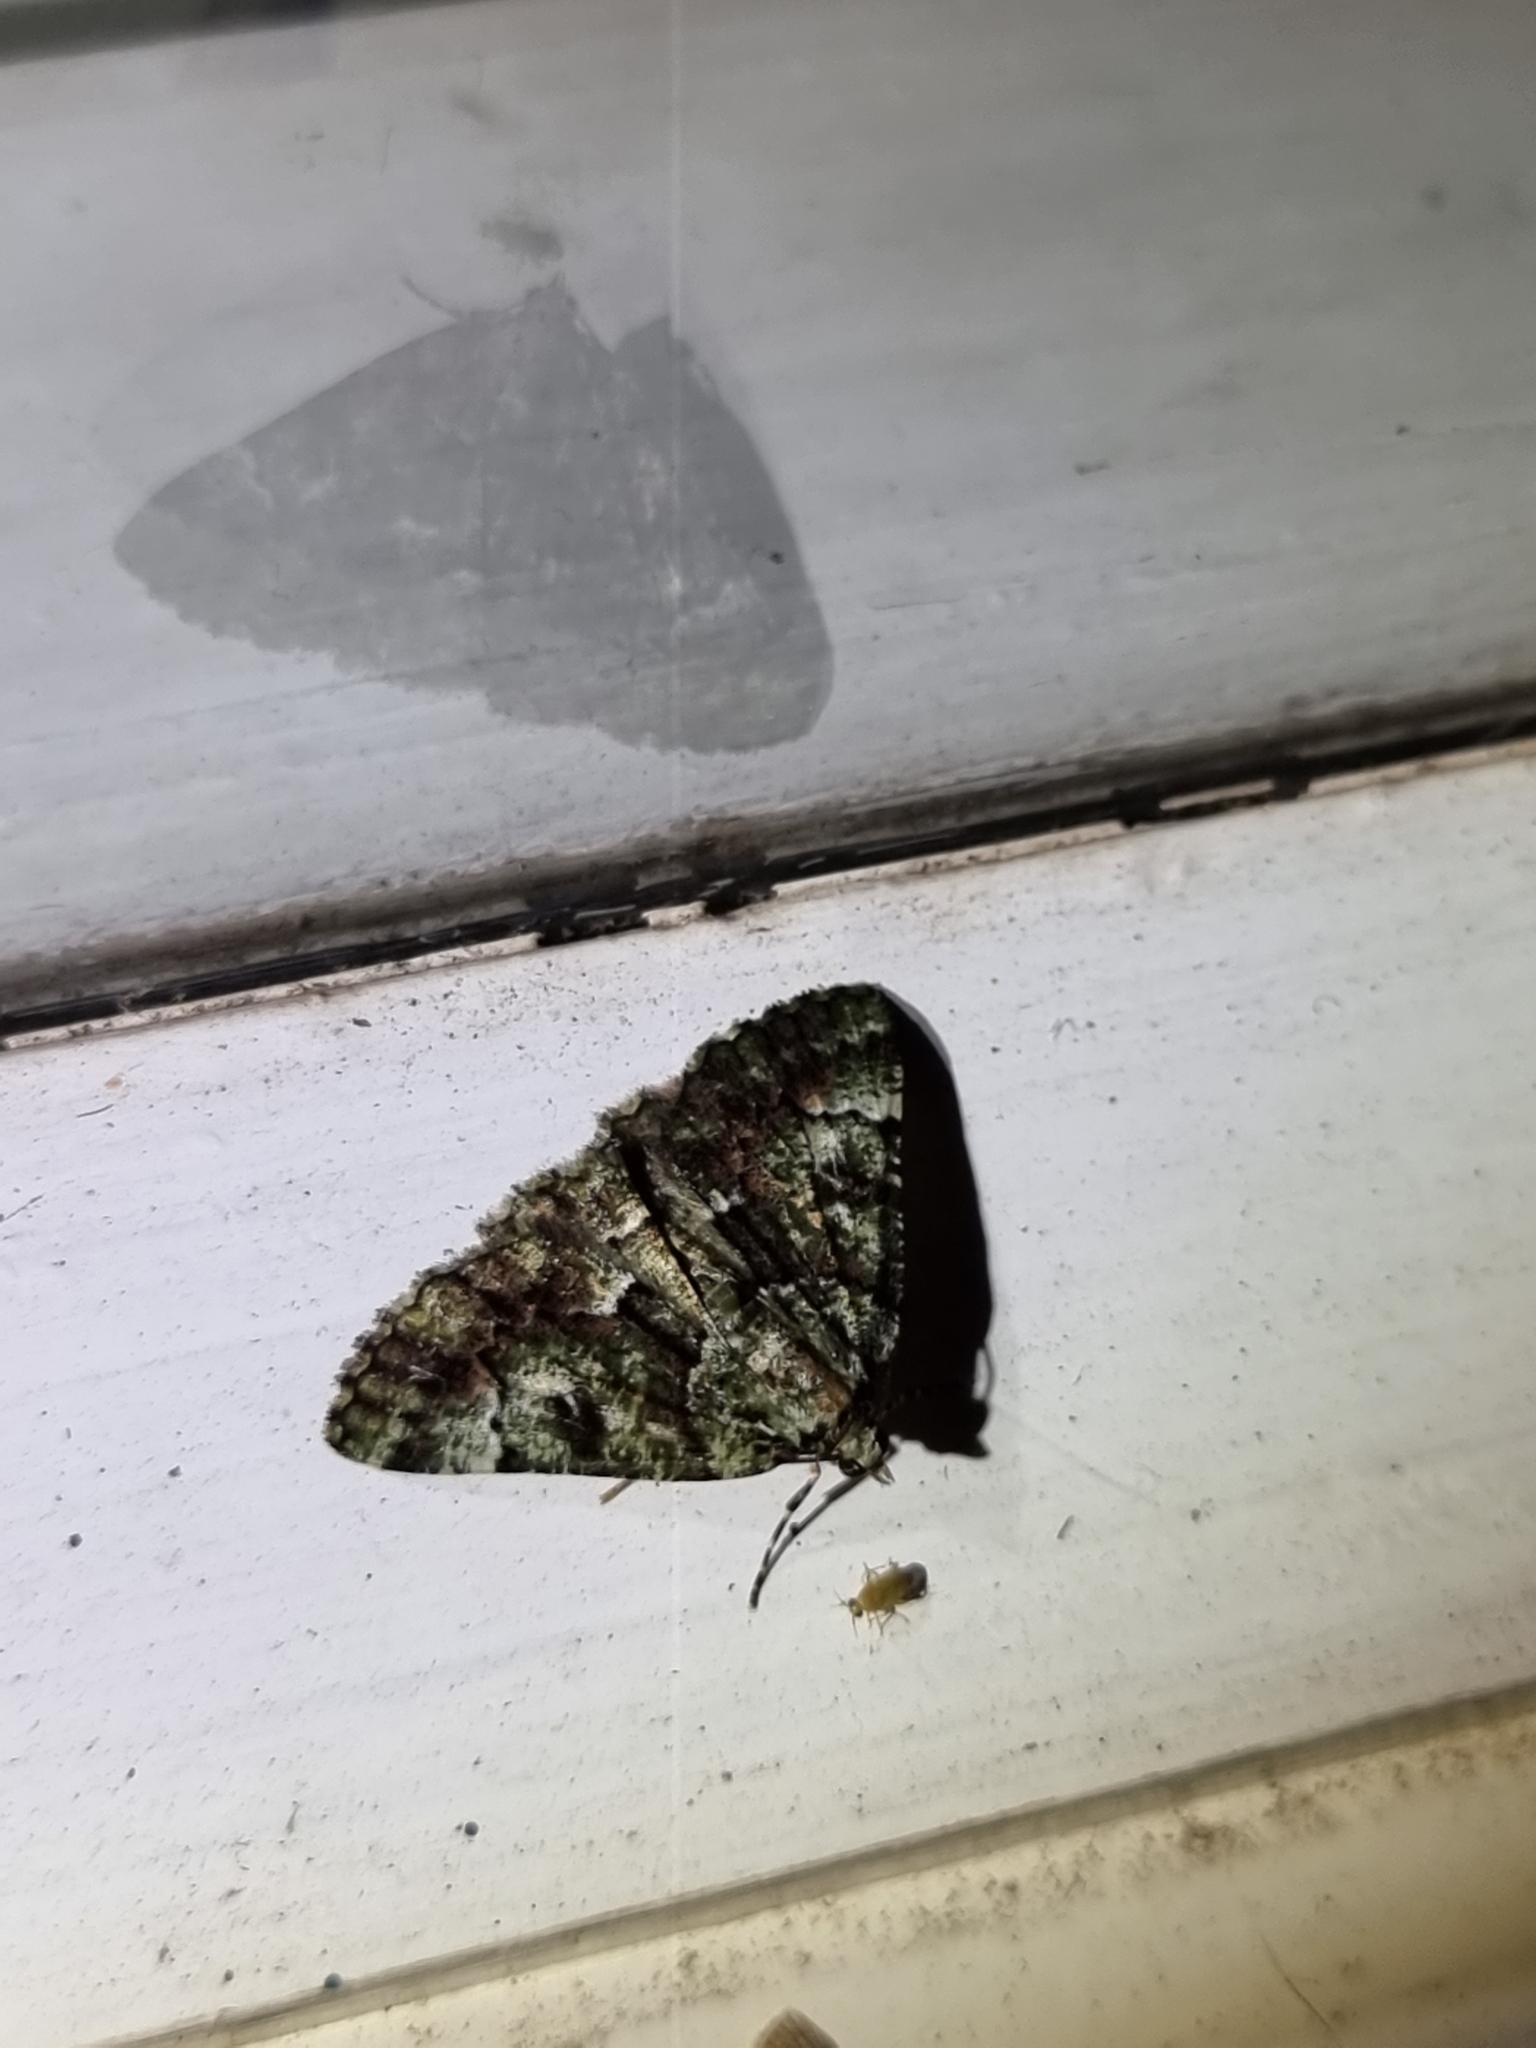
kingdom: Animalia
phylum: Arthropoda
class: Insecta
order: Lepidoptera
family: Geometridae
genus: Aeolochroma
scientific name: Aeolochroma metarhodata
